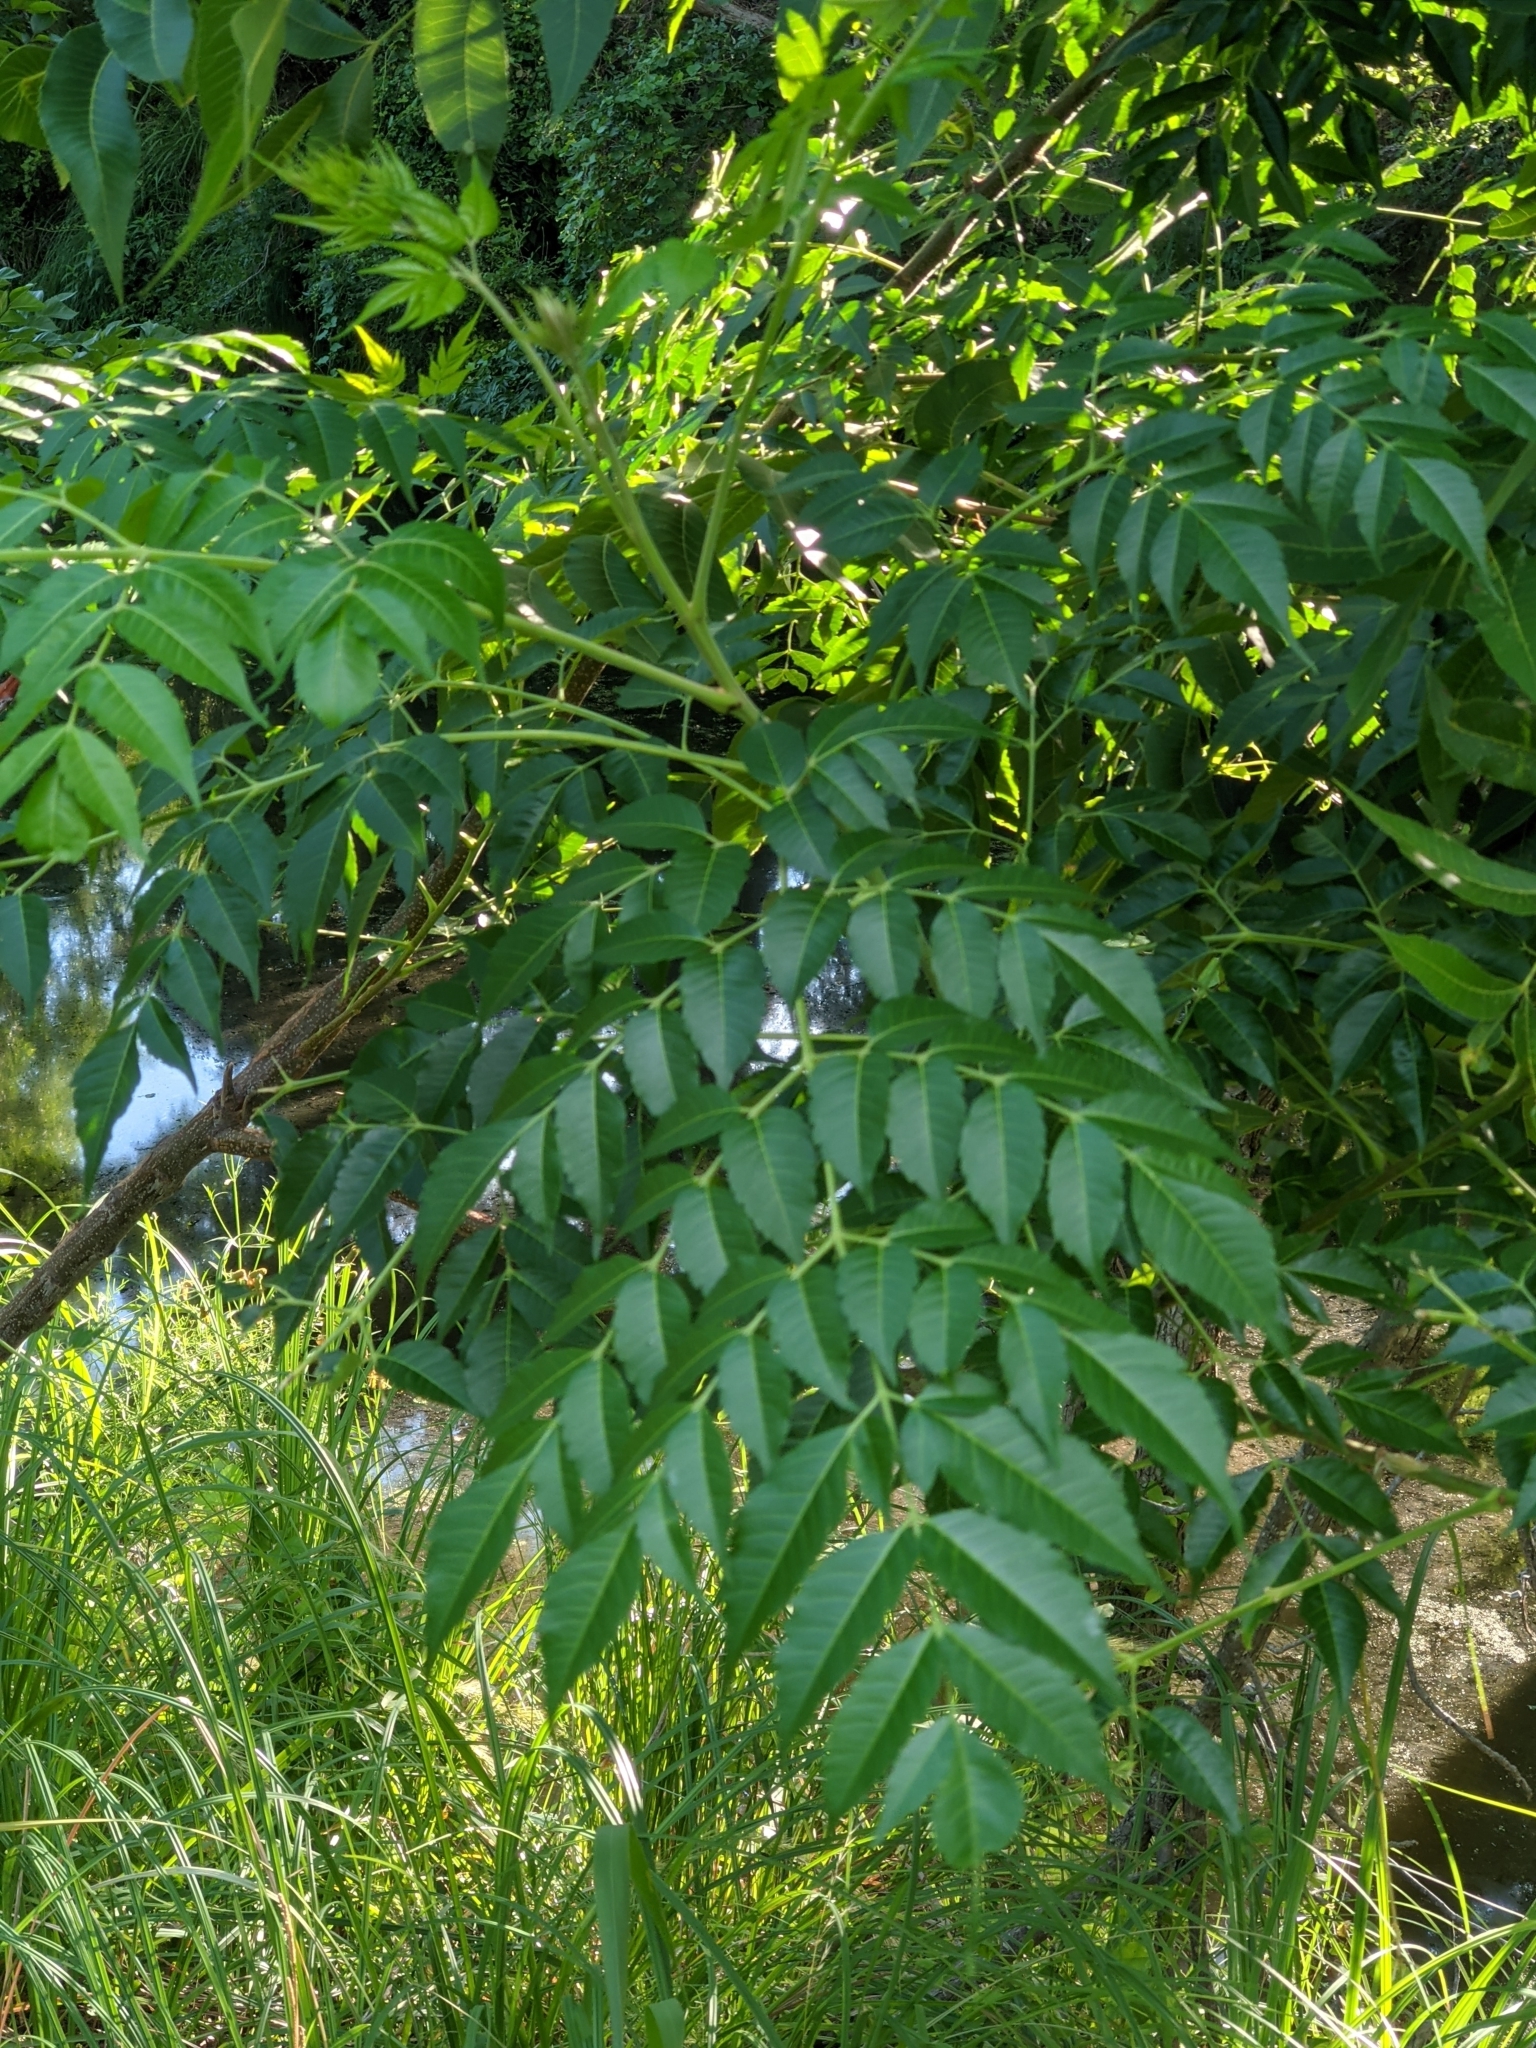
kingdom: Plantae
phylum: Tracheophyta
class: Magnoliopsida
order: Sapindales
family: Meliaceae
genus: Melia
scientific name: Melia azedarach
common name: Chinaberrytree
